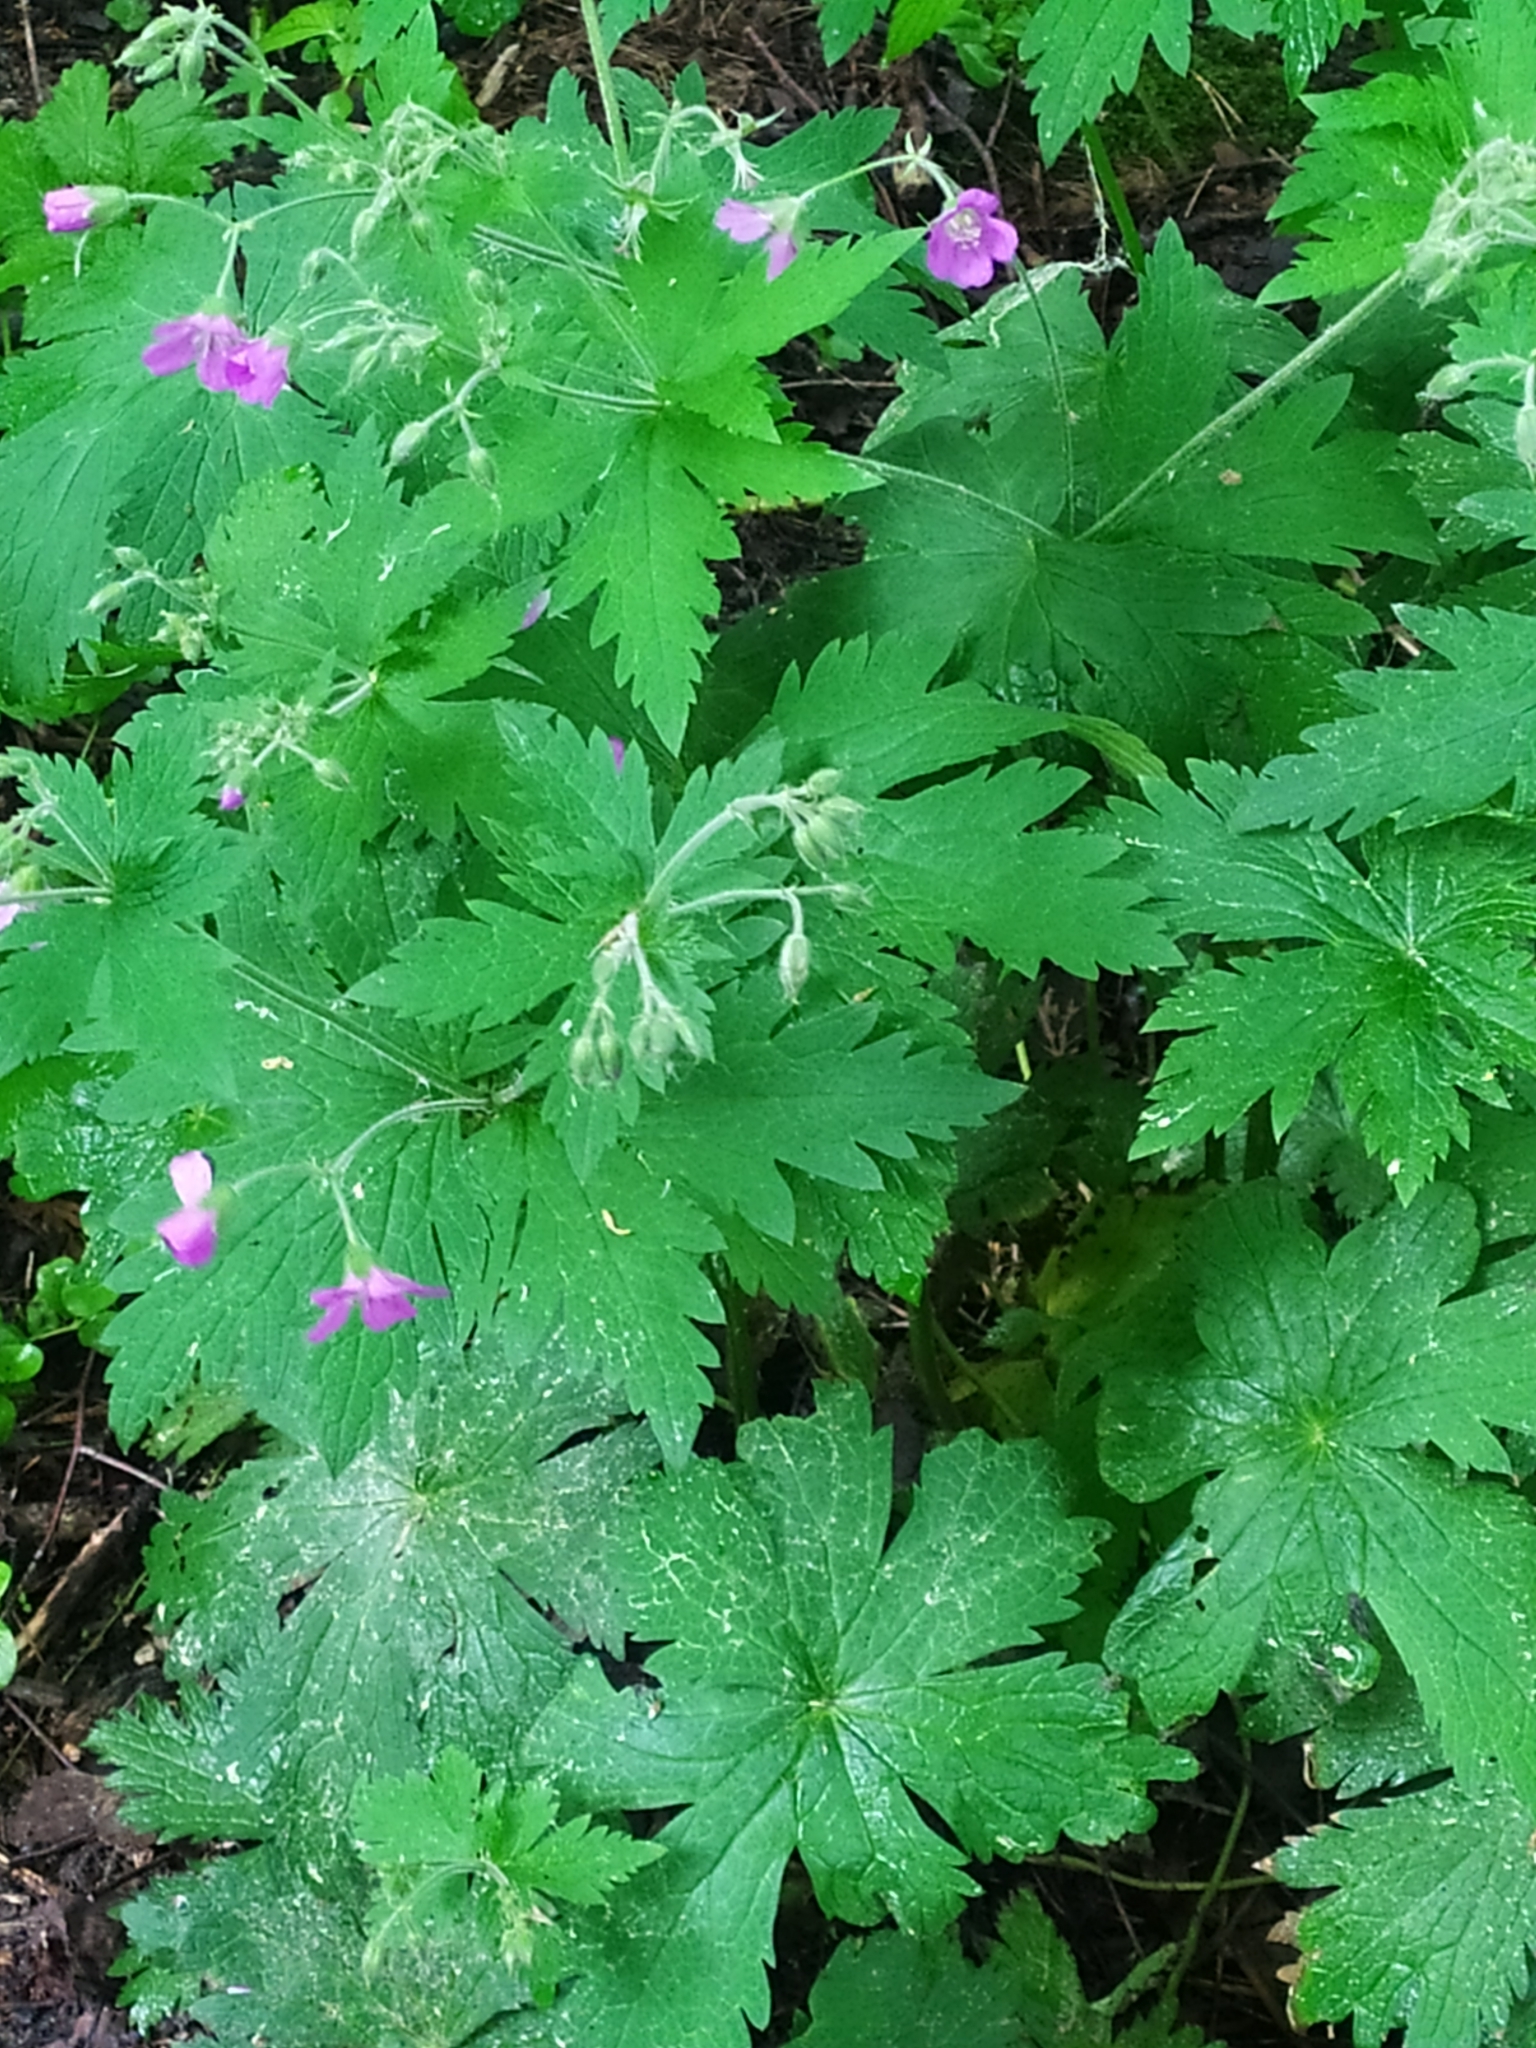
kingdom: Plantae
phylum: Tracheophyta
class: Magnoliopsida
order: Geraniales
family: Geraniaceae
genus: Geranium
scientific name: Geranium sylvaticum
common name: Wood crane's-bill
